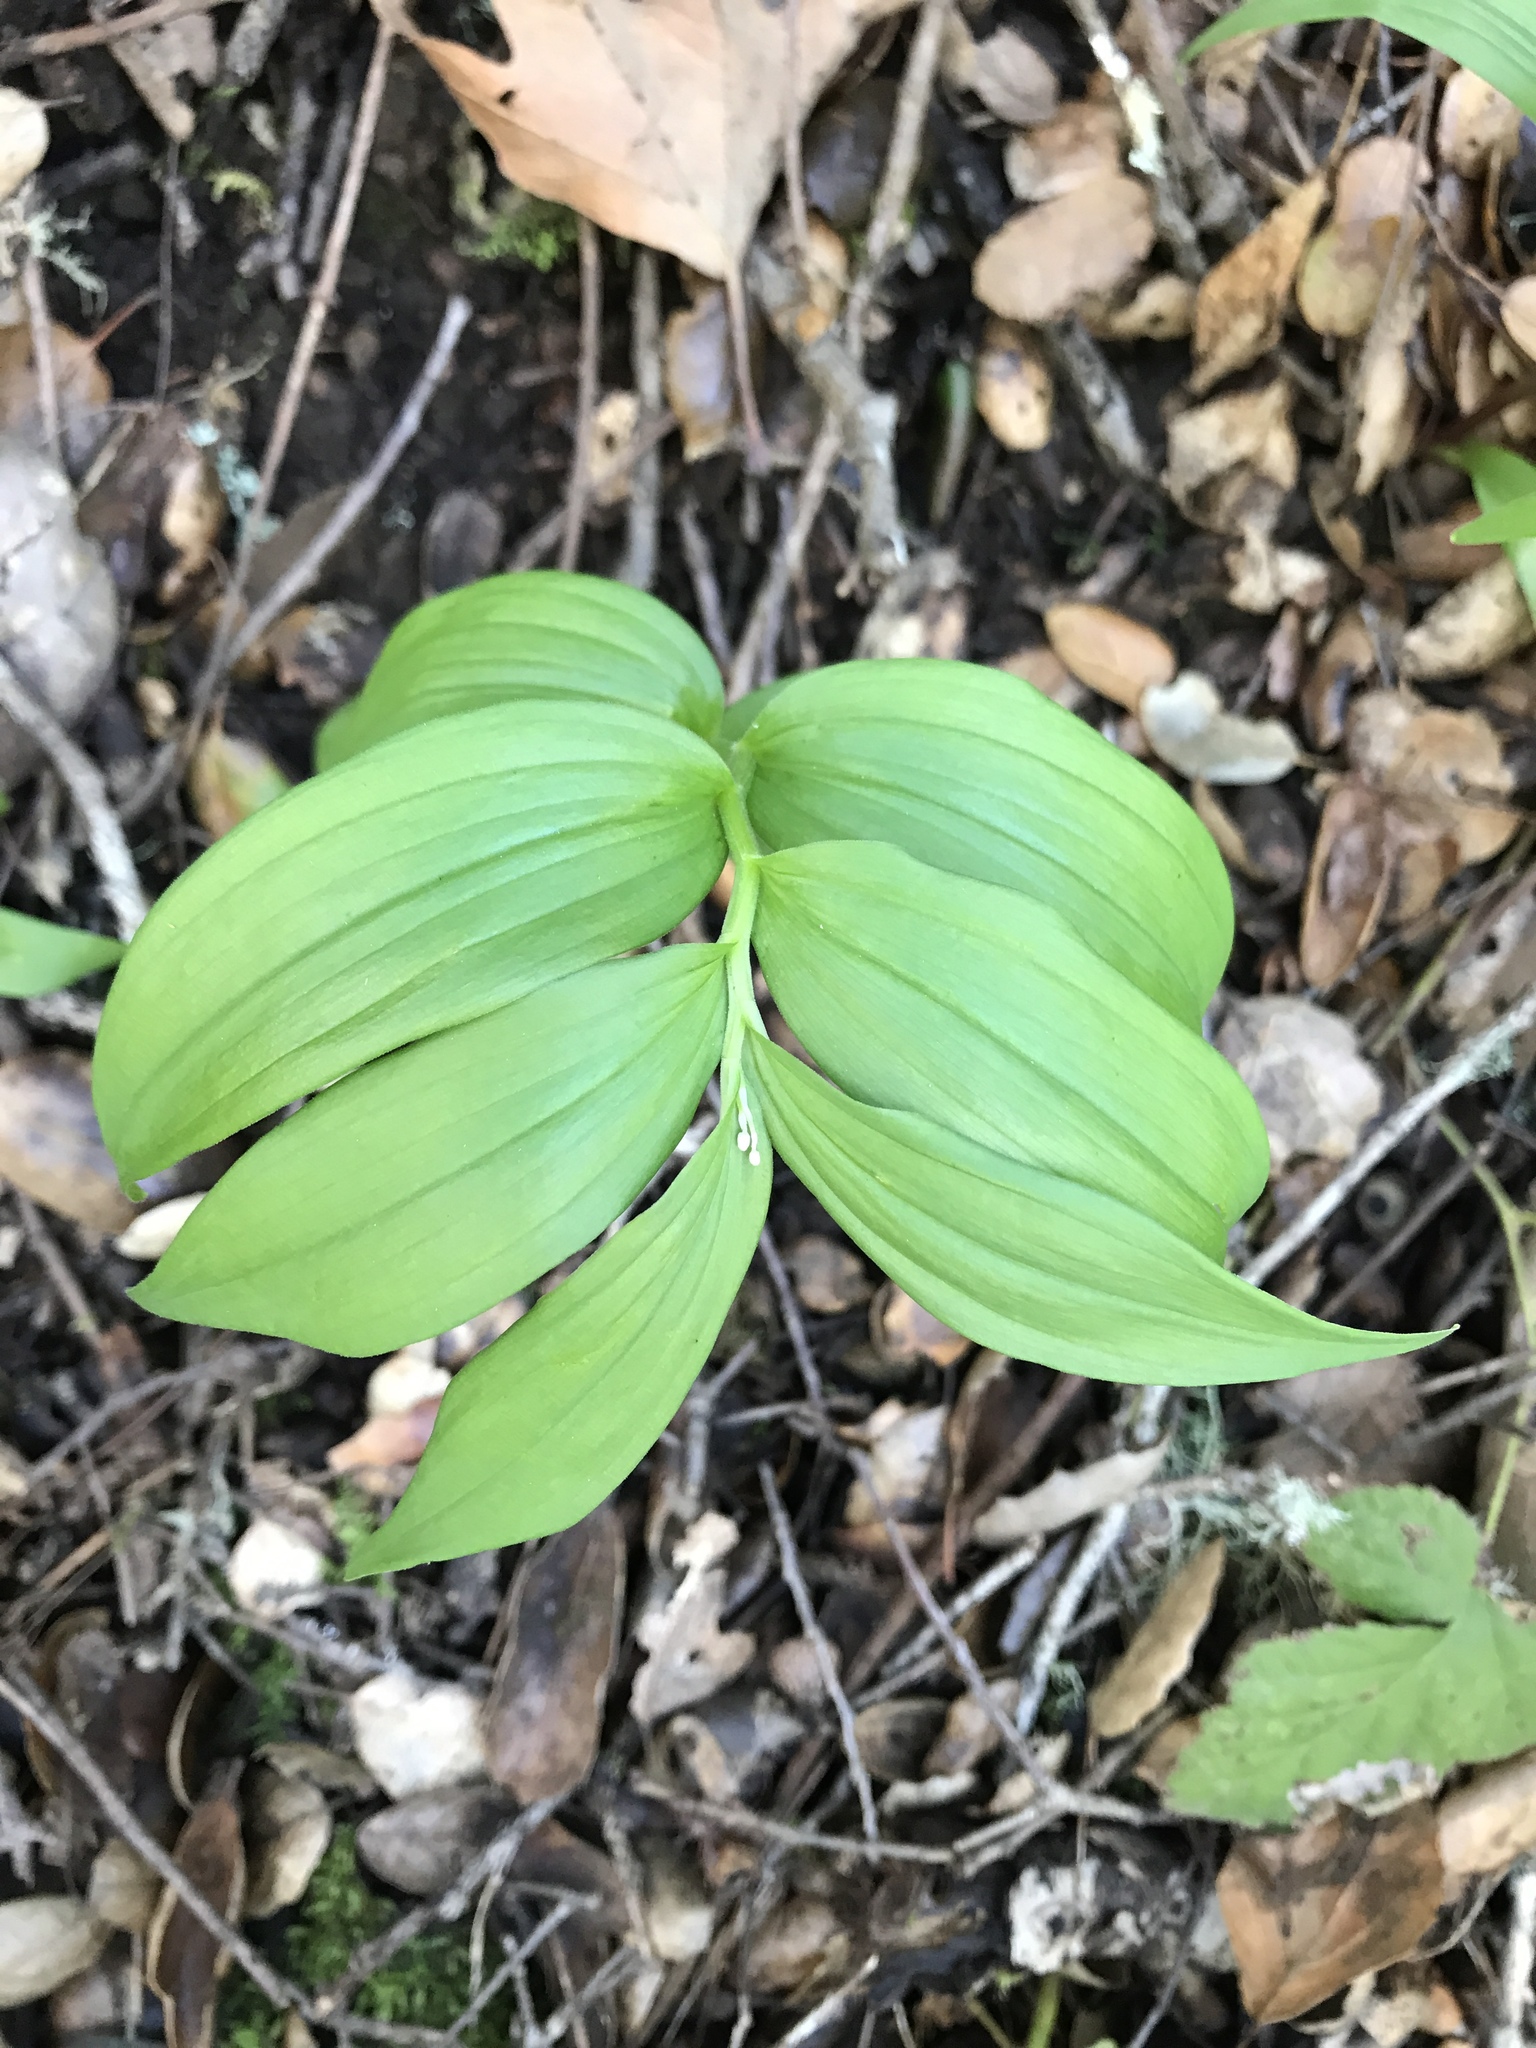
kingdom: Plantae
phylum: Tracheophyta
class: Liliopsida
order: Asparagales
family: Asparagaceae
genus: Maianthemum
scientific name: Maianthemum stellatum
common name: Little false solomon's seal
